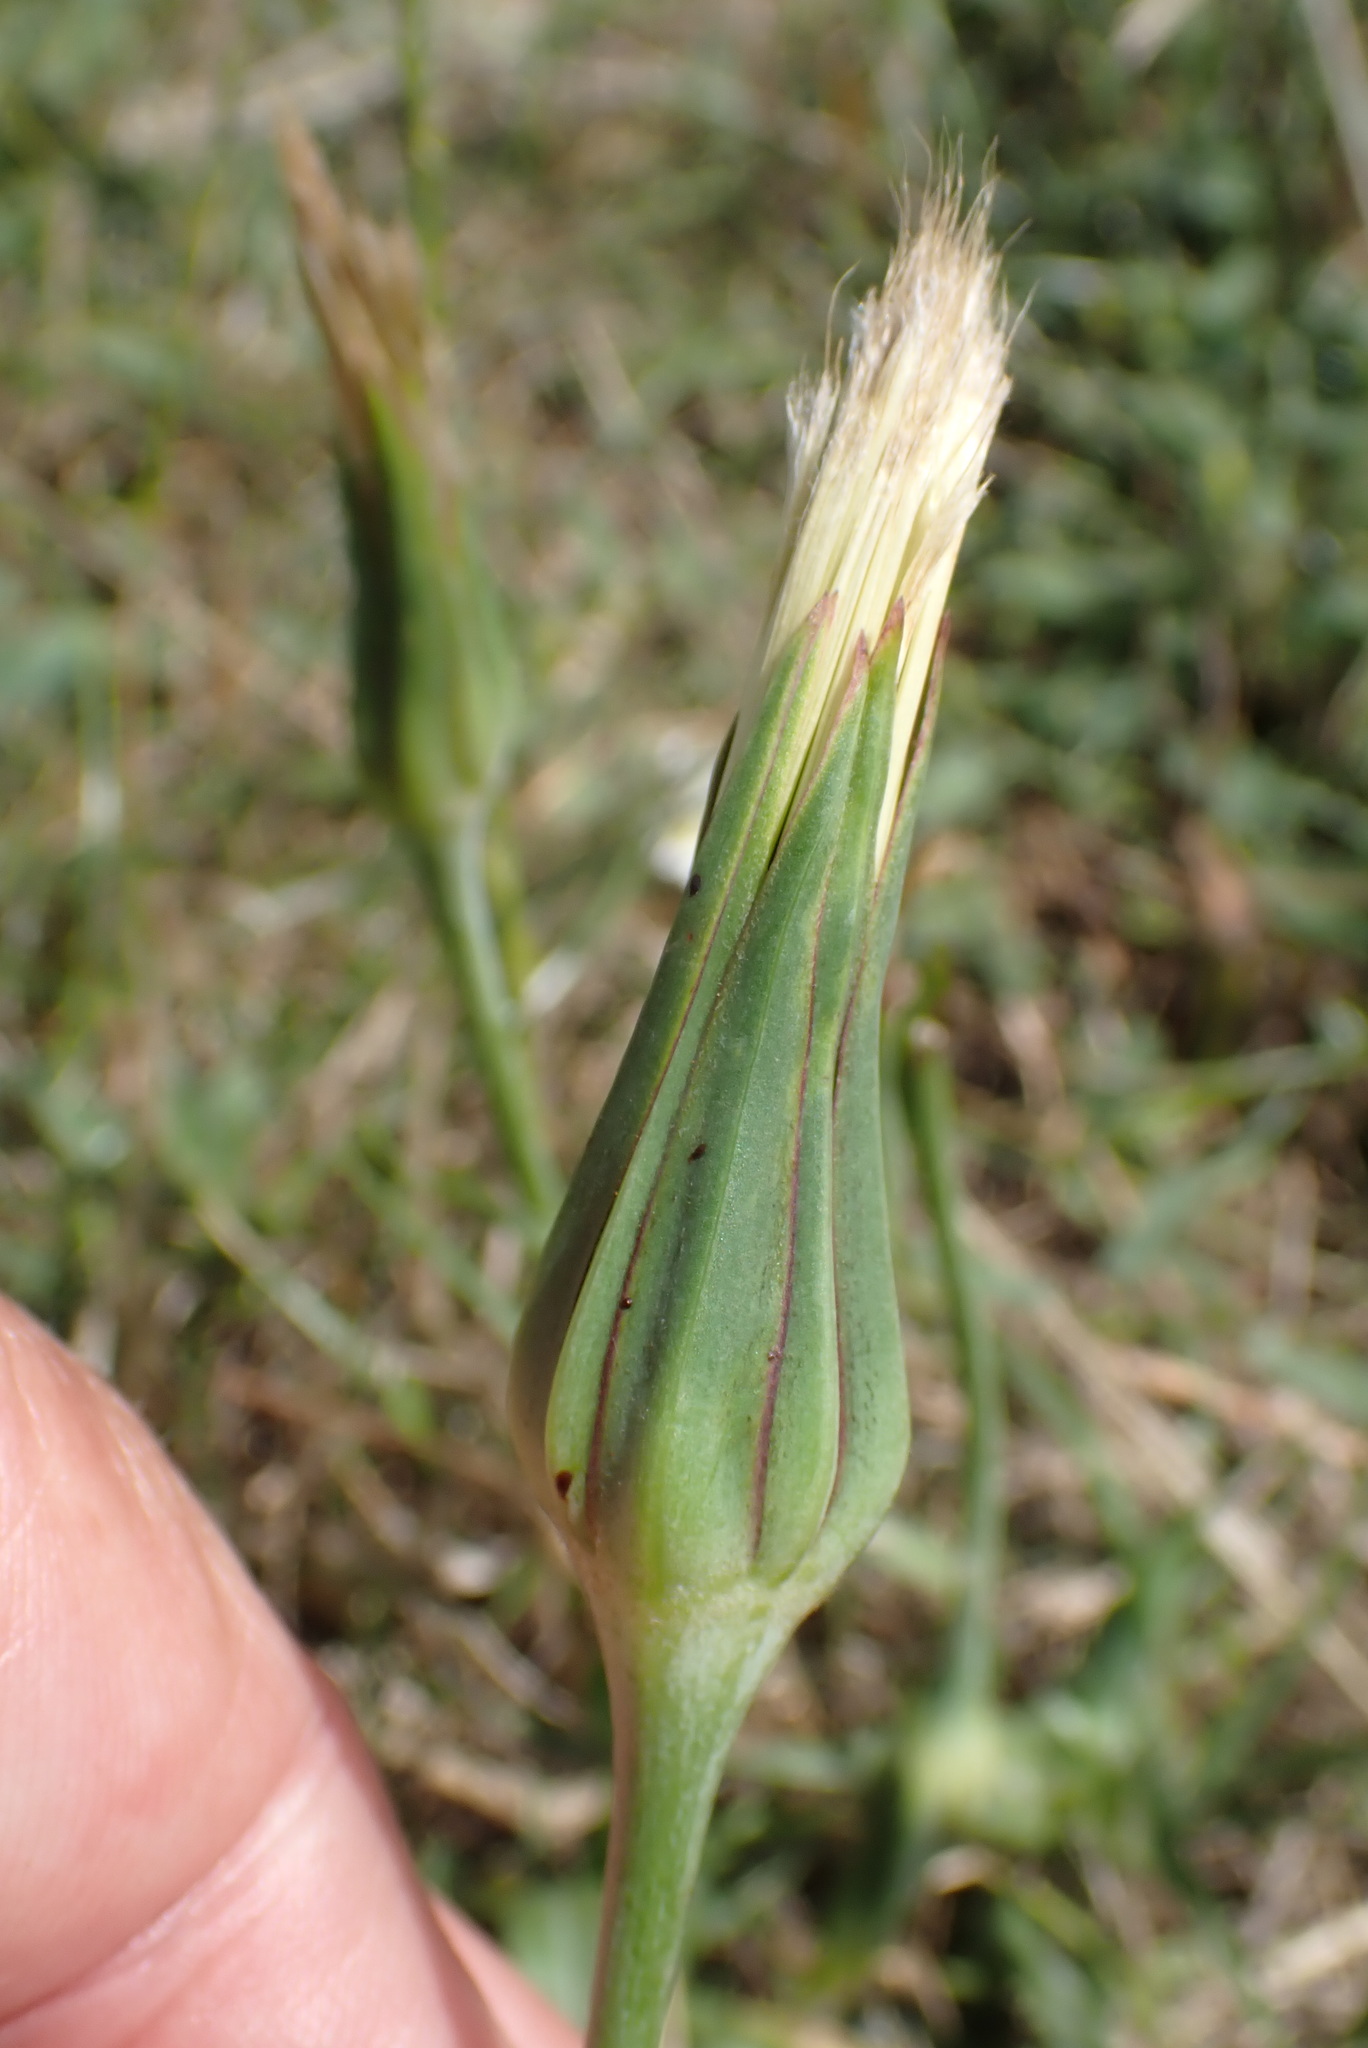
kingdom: Plantae
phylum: Tracheophyta
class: Magnoliopsida
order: Asterales
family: Asteraceae
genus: Tragopogon
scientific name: Tragopogon pratensis
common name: Goat's-beard
